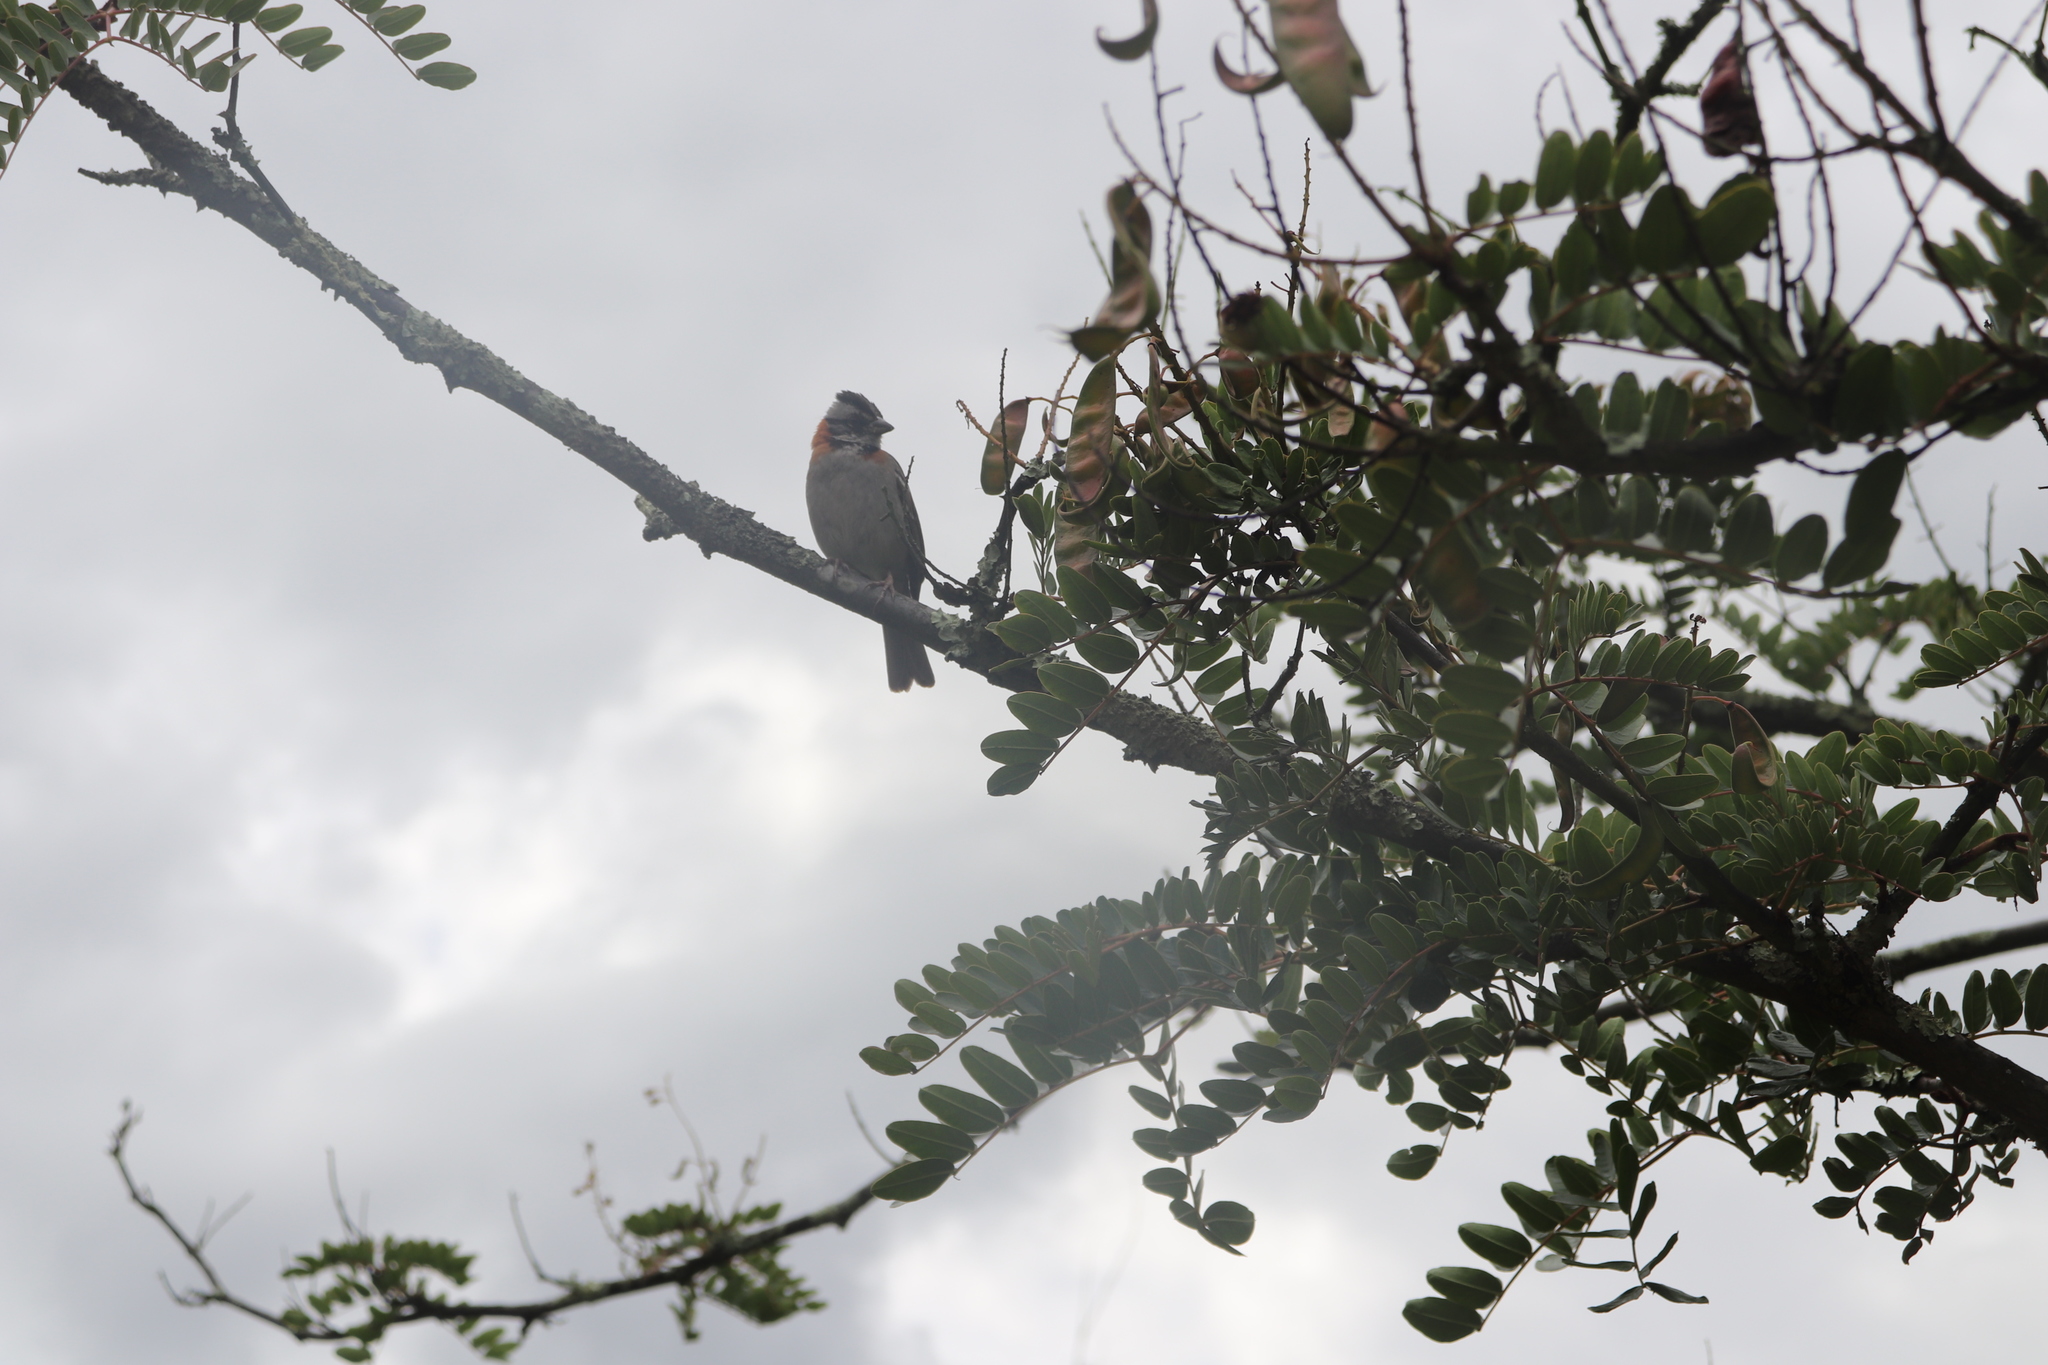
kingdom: Animalia
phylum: Chordata
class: Aves
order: Passeriformes
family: Passerellidae
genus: Zonotrichia
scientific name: Zonotrichia capensis
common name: Rufous-collared sparrow
